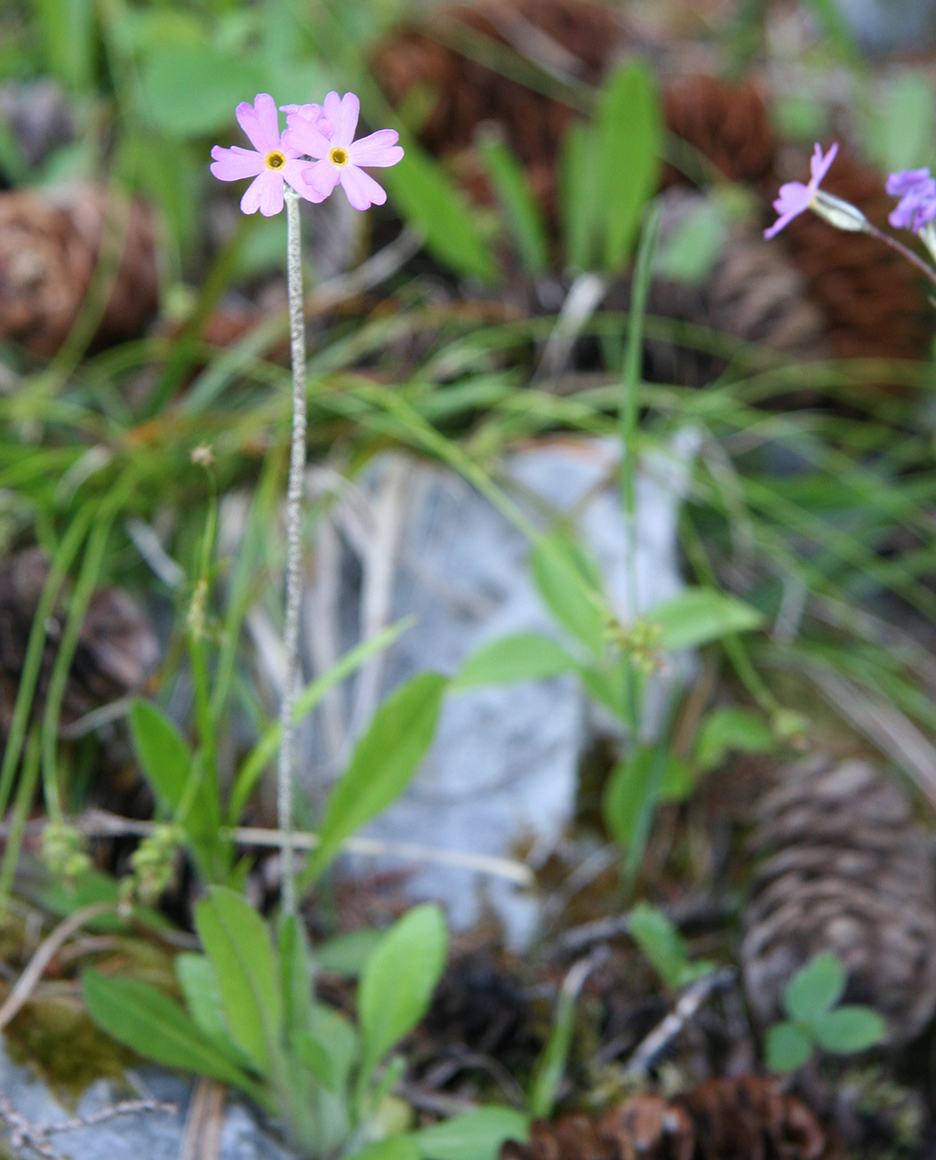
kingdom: Plantae
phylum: Tracheophyta
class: Magnoliopsida
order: Ericales
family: Primulaceae
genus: Primula
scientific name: Primula laurentiana
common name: Bird-eye primrose
